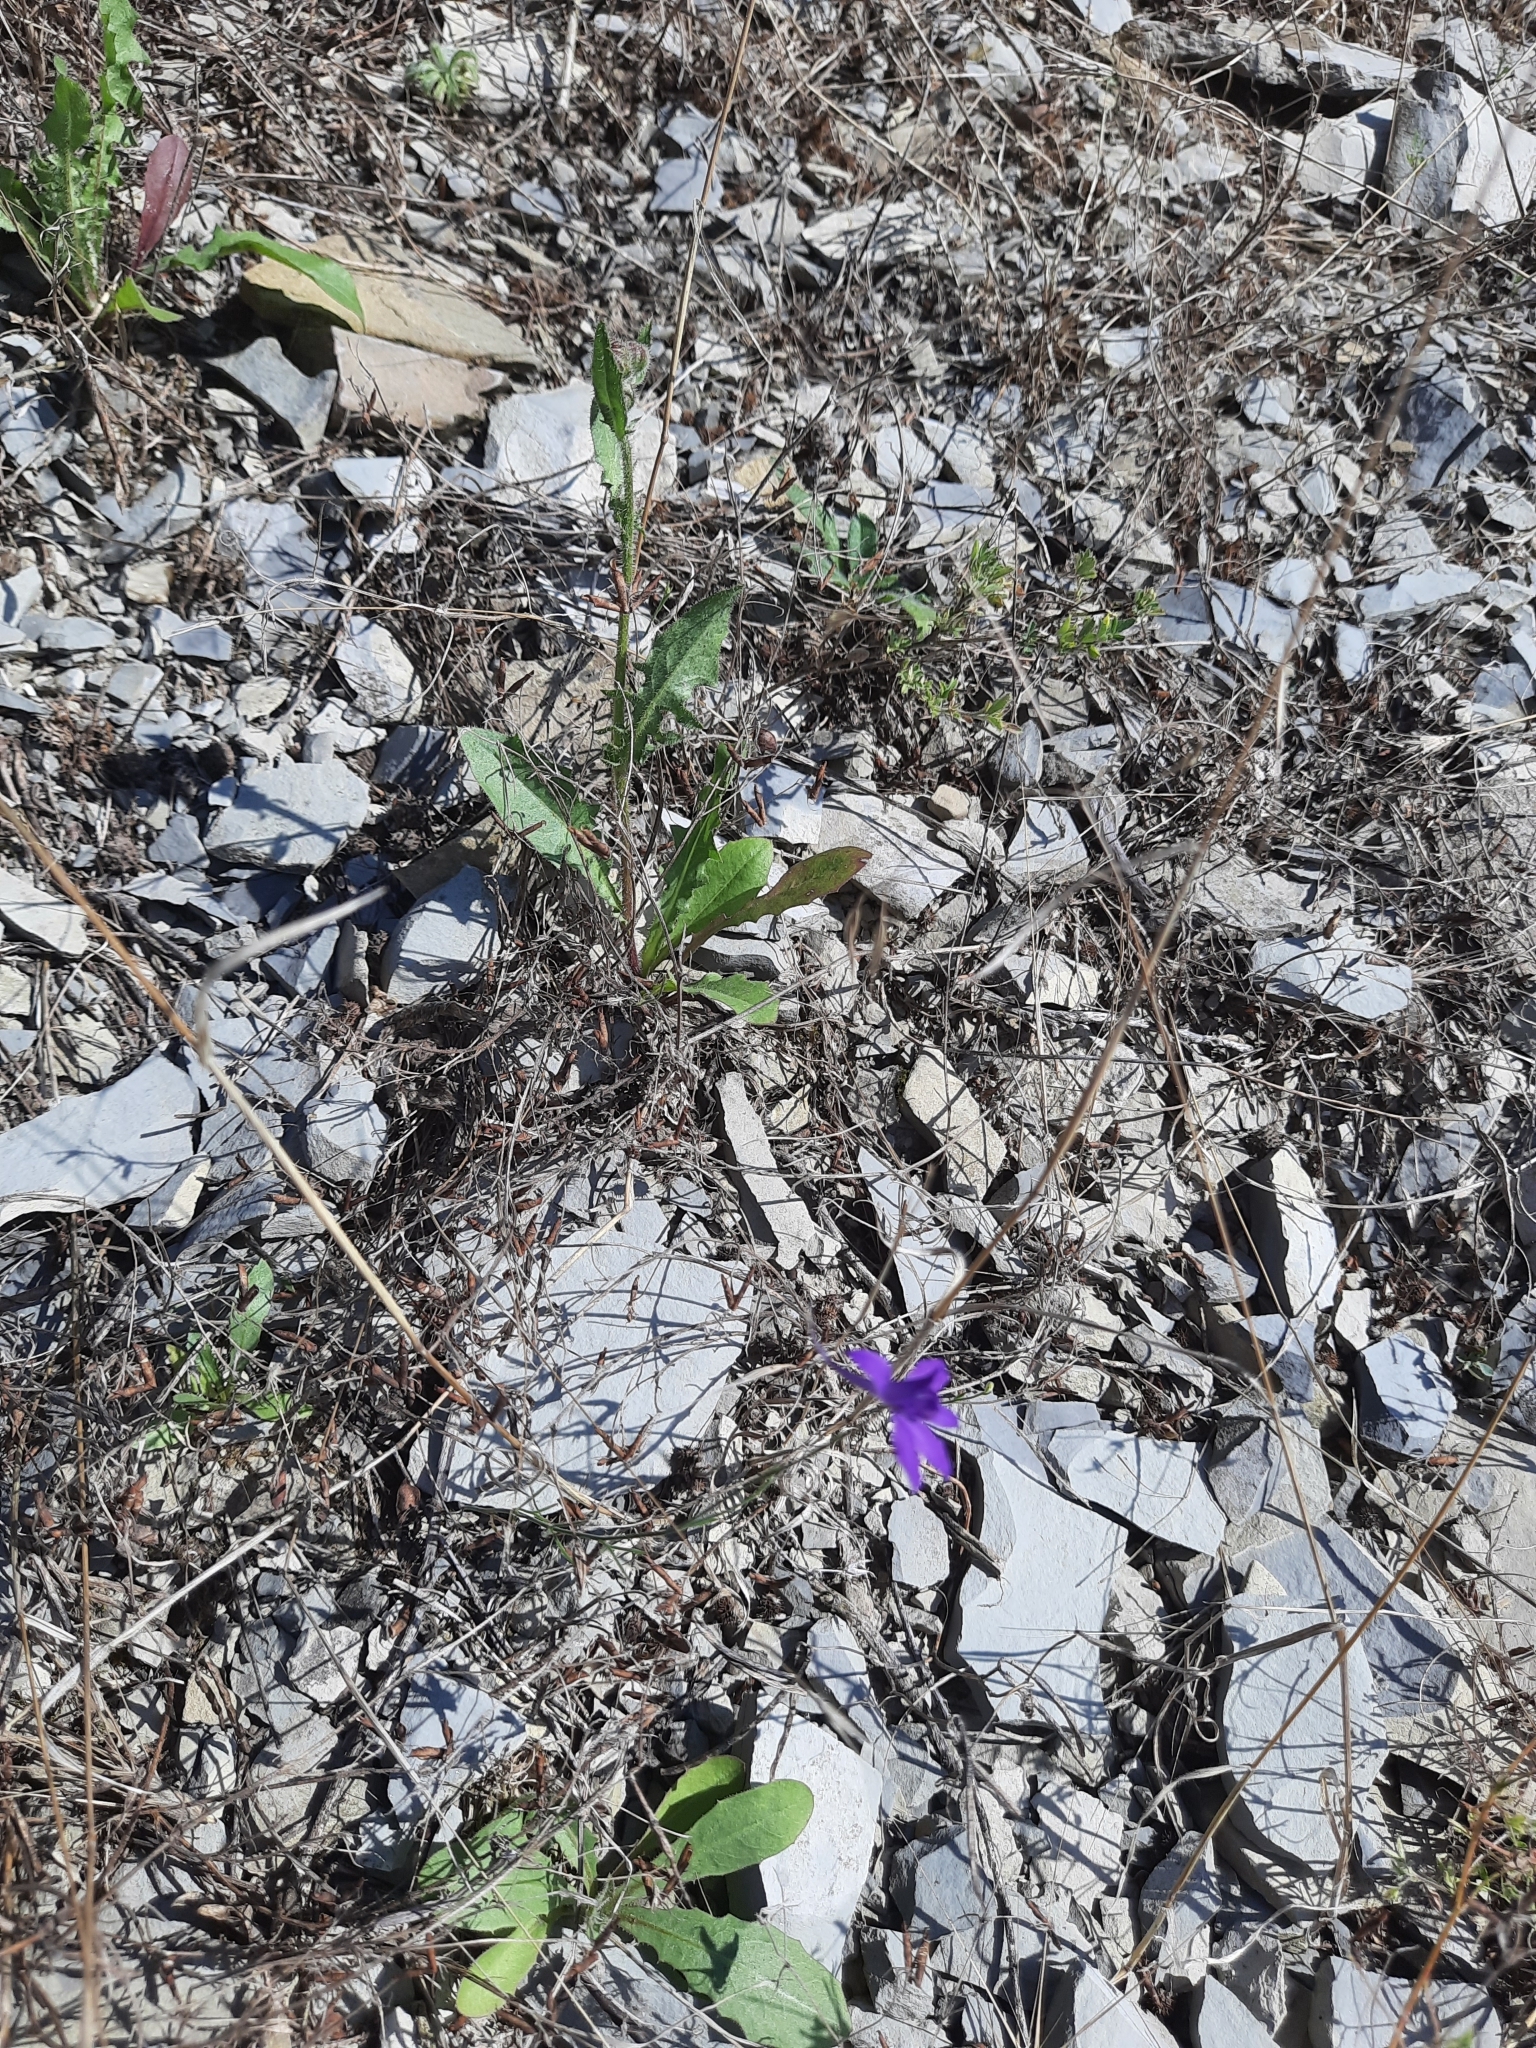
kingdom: Plantae
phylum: Tracheophyta
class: Magnoliopsida
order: Ranunculales
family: Ranunculaceae
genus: Delphinium
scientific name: Delphinium consolida
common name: Branching larkspur
